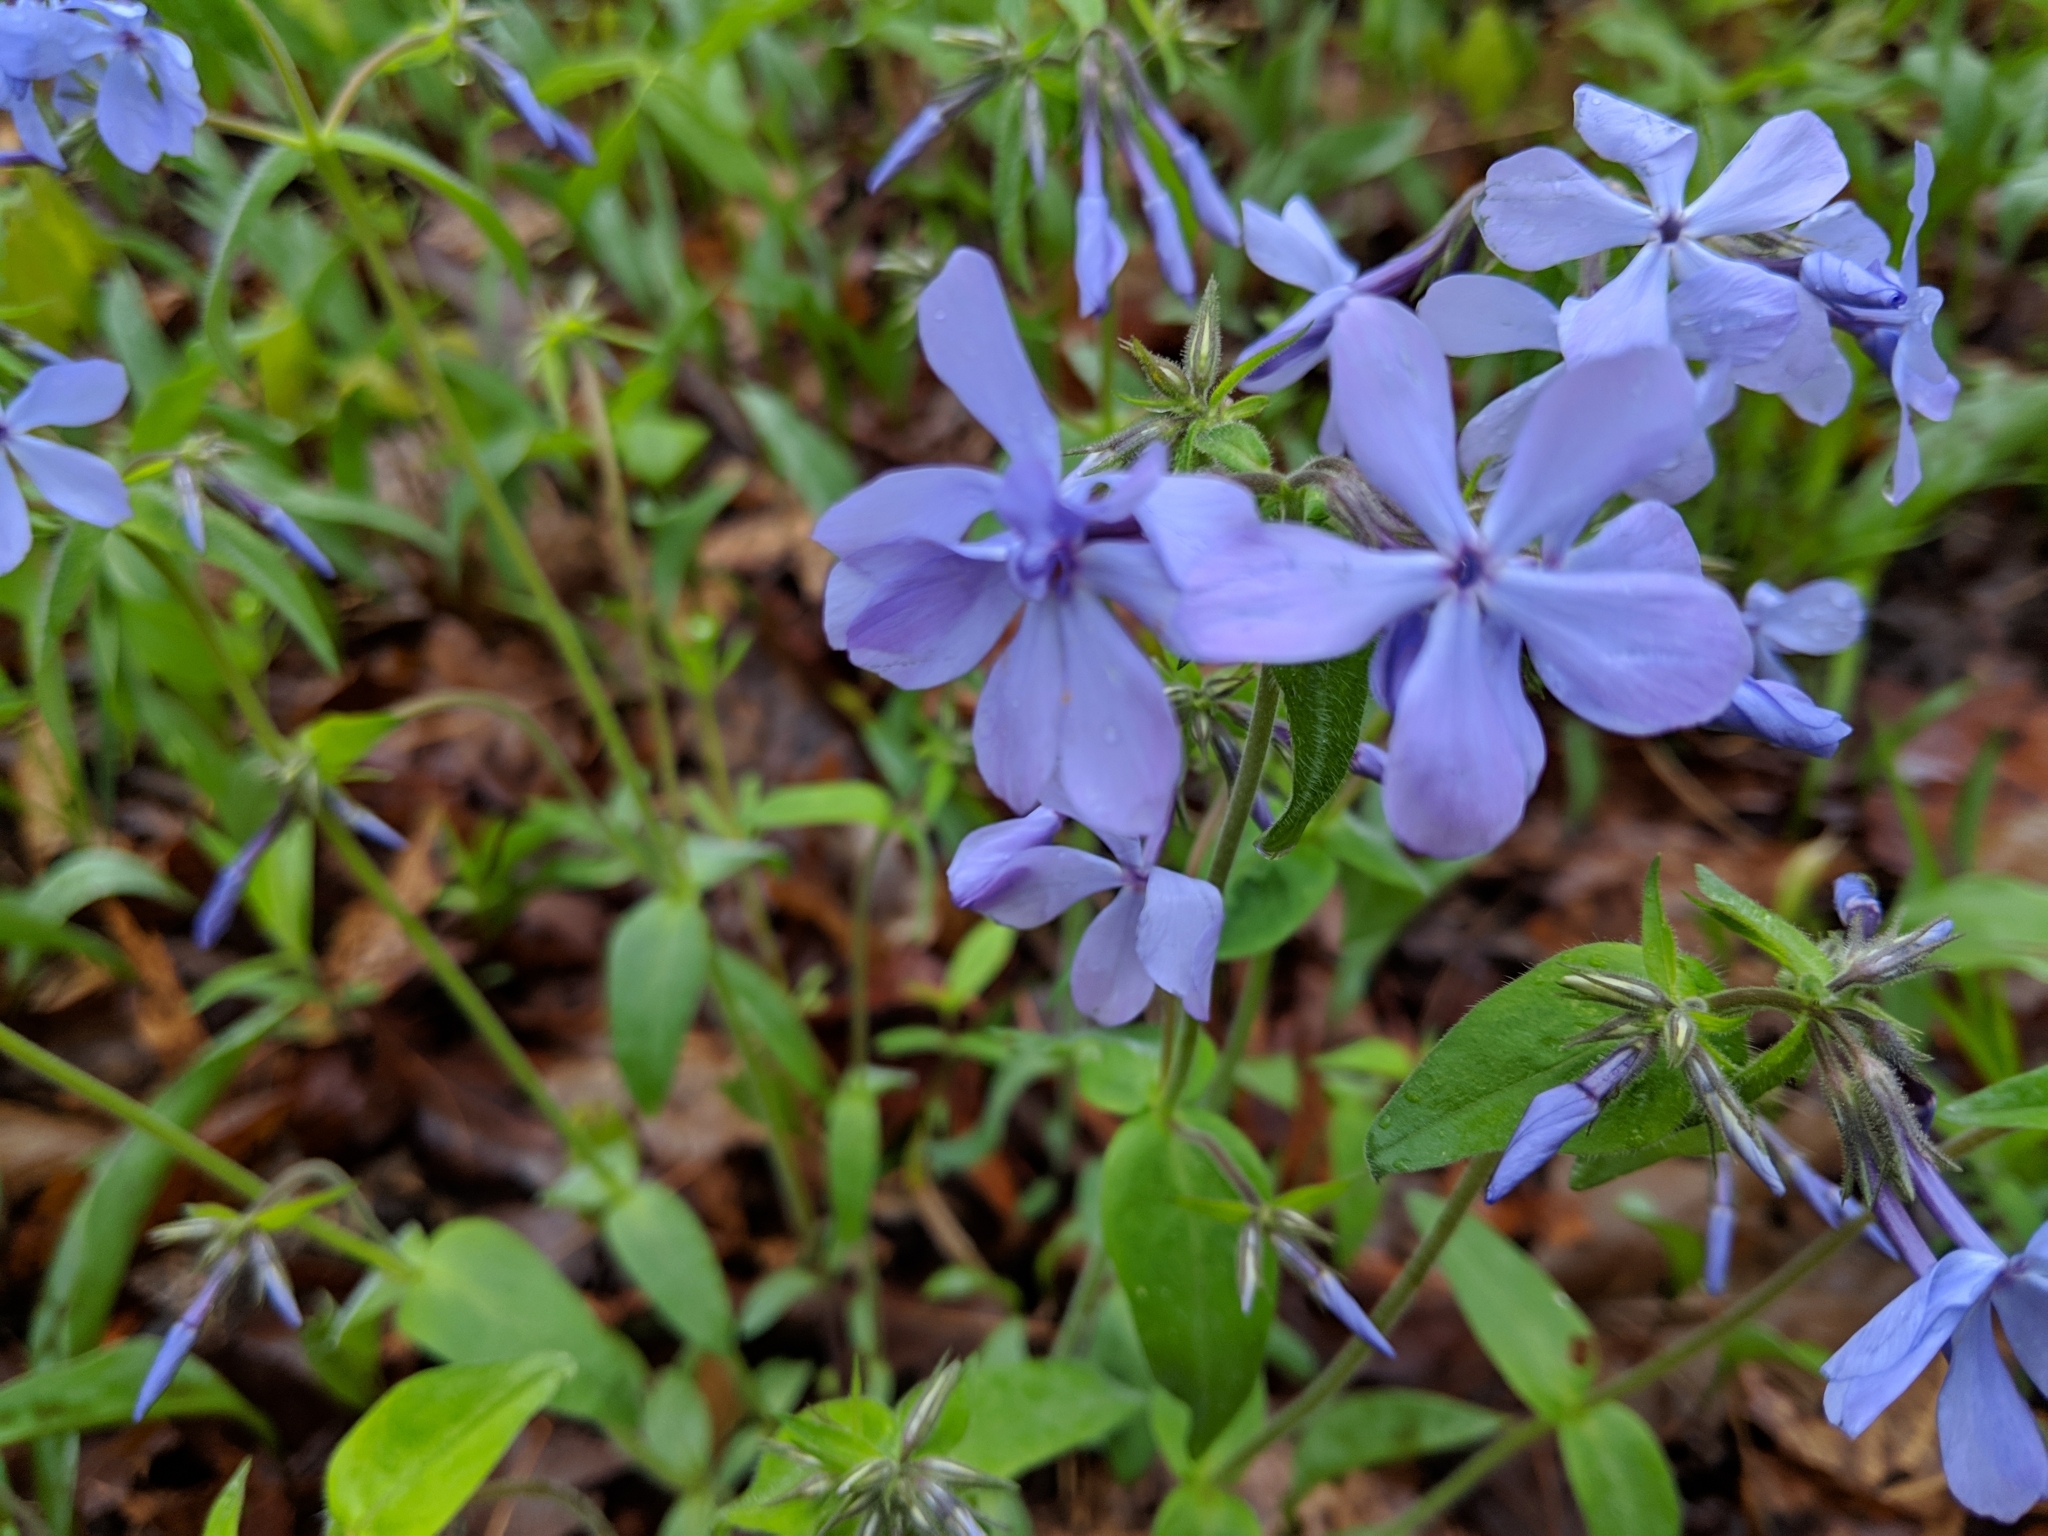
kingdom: Plantae
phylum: Tracheophyta
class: Magnoliopsida
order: Ericales
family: Polemoniaceae
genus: Phlox
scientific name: Phlox divaricata
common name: Blue phlox
